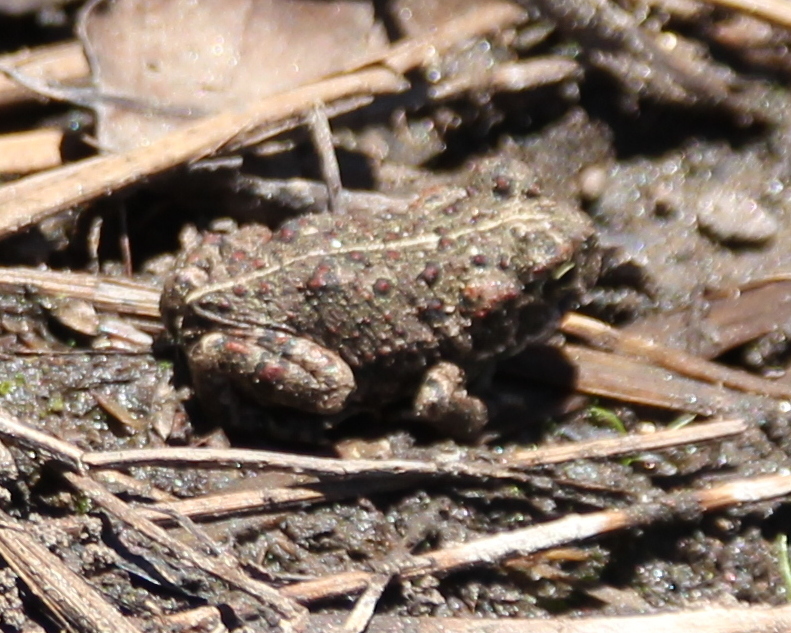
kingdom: Animalia
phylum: Chordata
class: Amphibia
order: Anura
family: Bufonidae
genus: Anaxyrus
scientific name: Anaxyrus boreas
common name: Western toad
